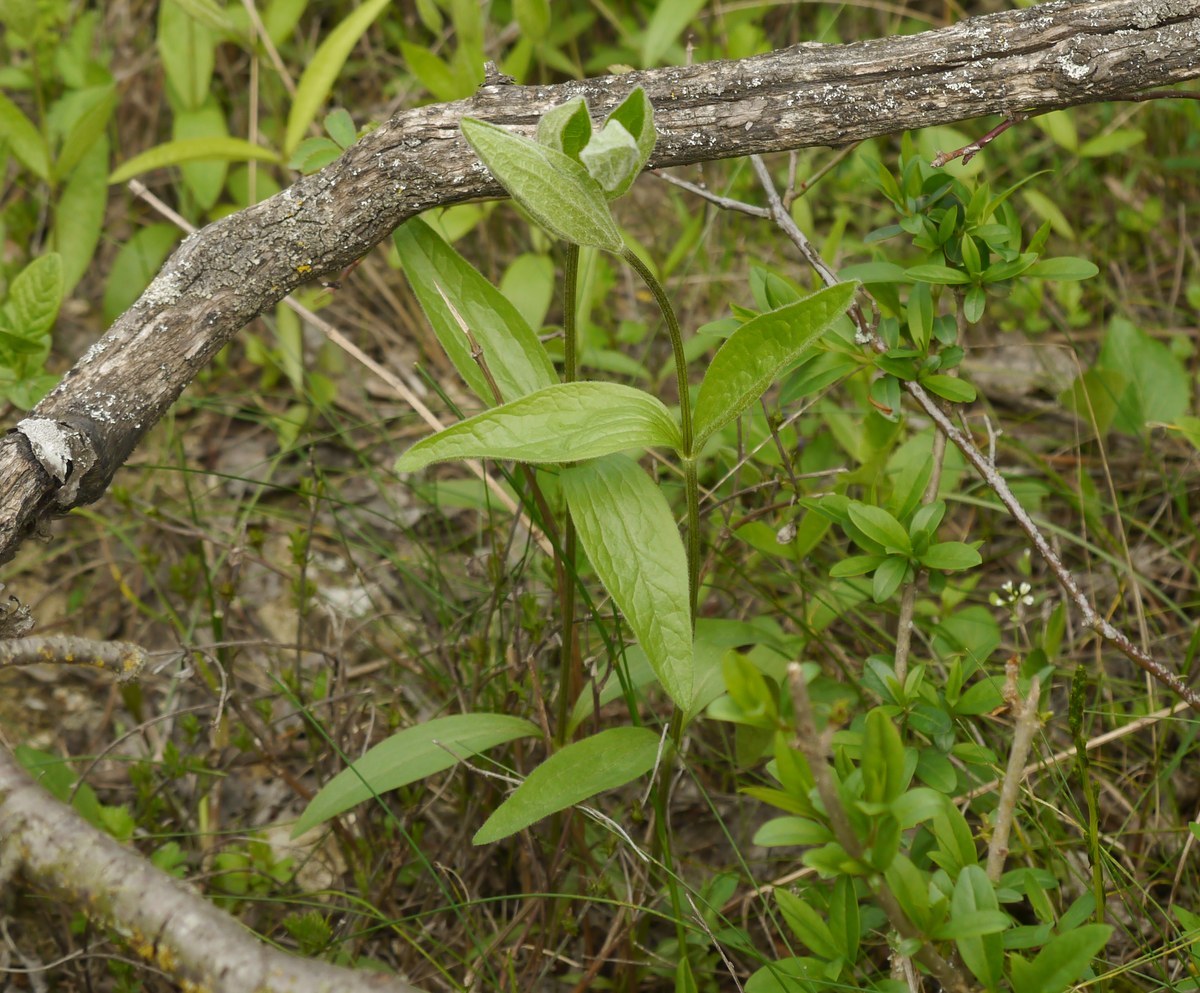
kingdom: Plantae
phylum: Tracheophyta
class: Magnoliopsida
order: Ranunculales
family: Ranunculaceae
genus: Clematis
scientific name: Clematis integrifolia
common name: Solitary clematis
